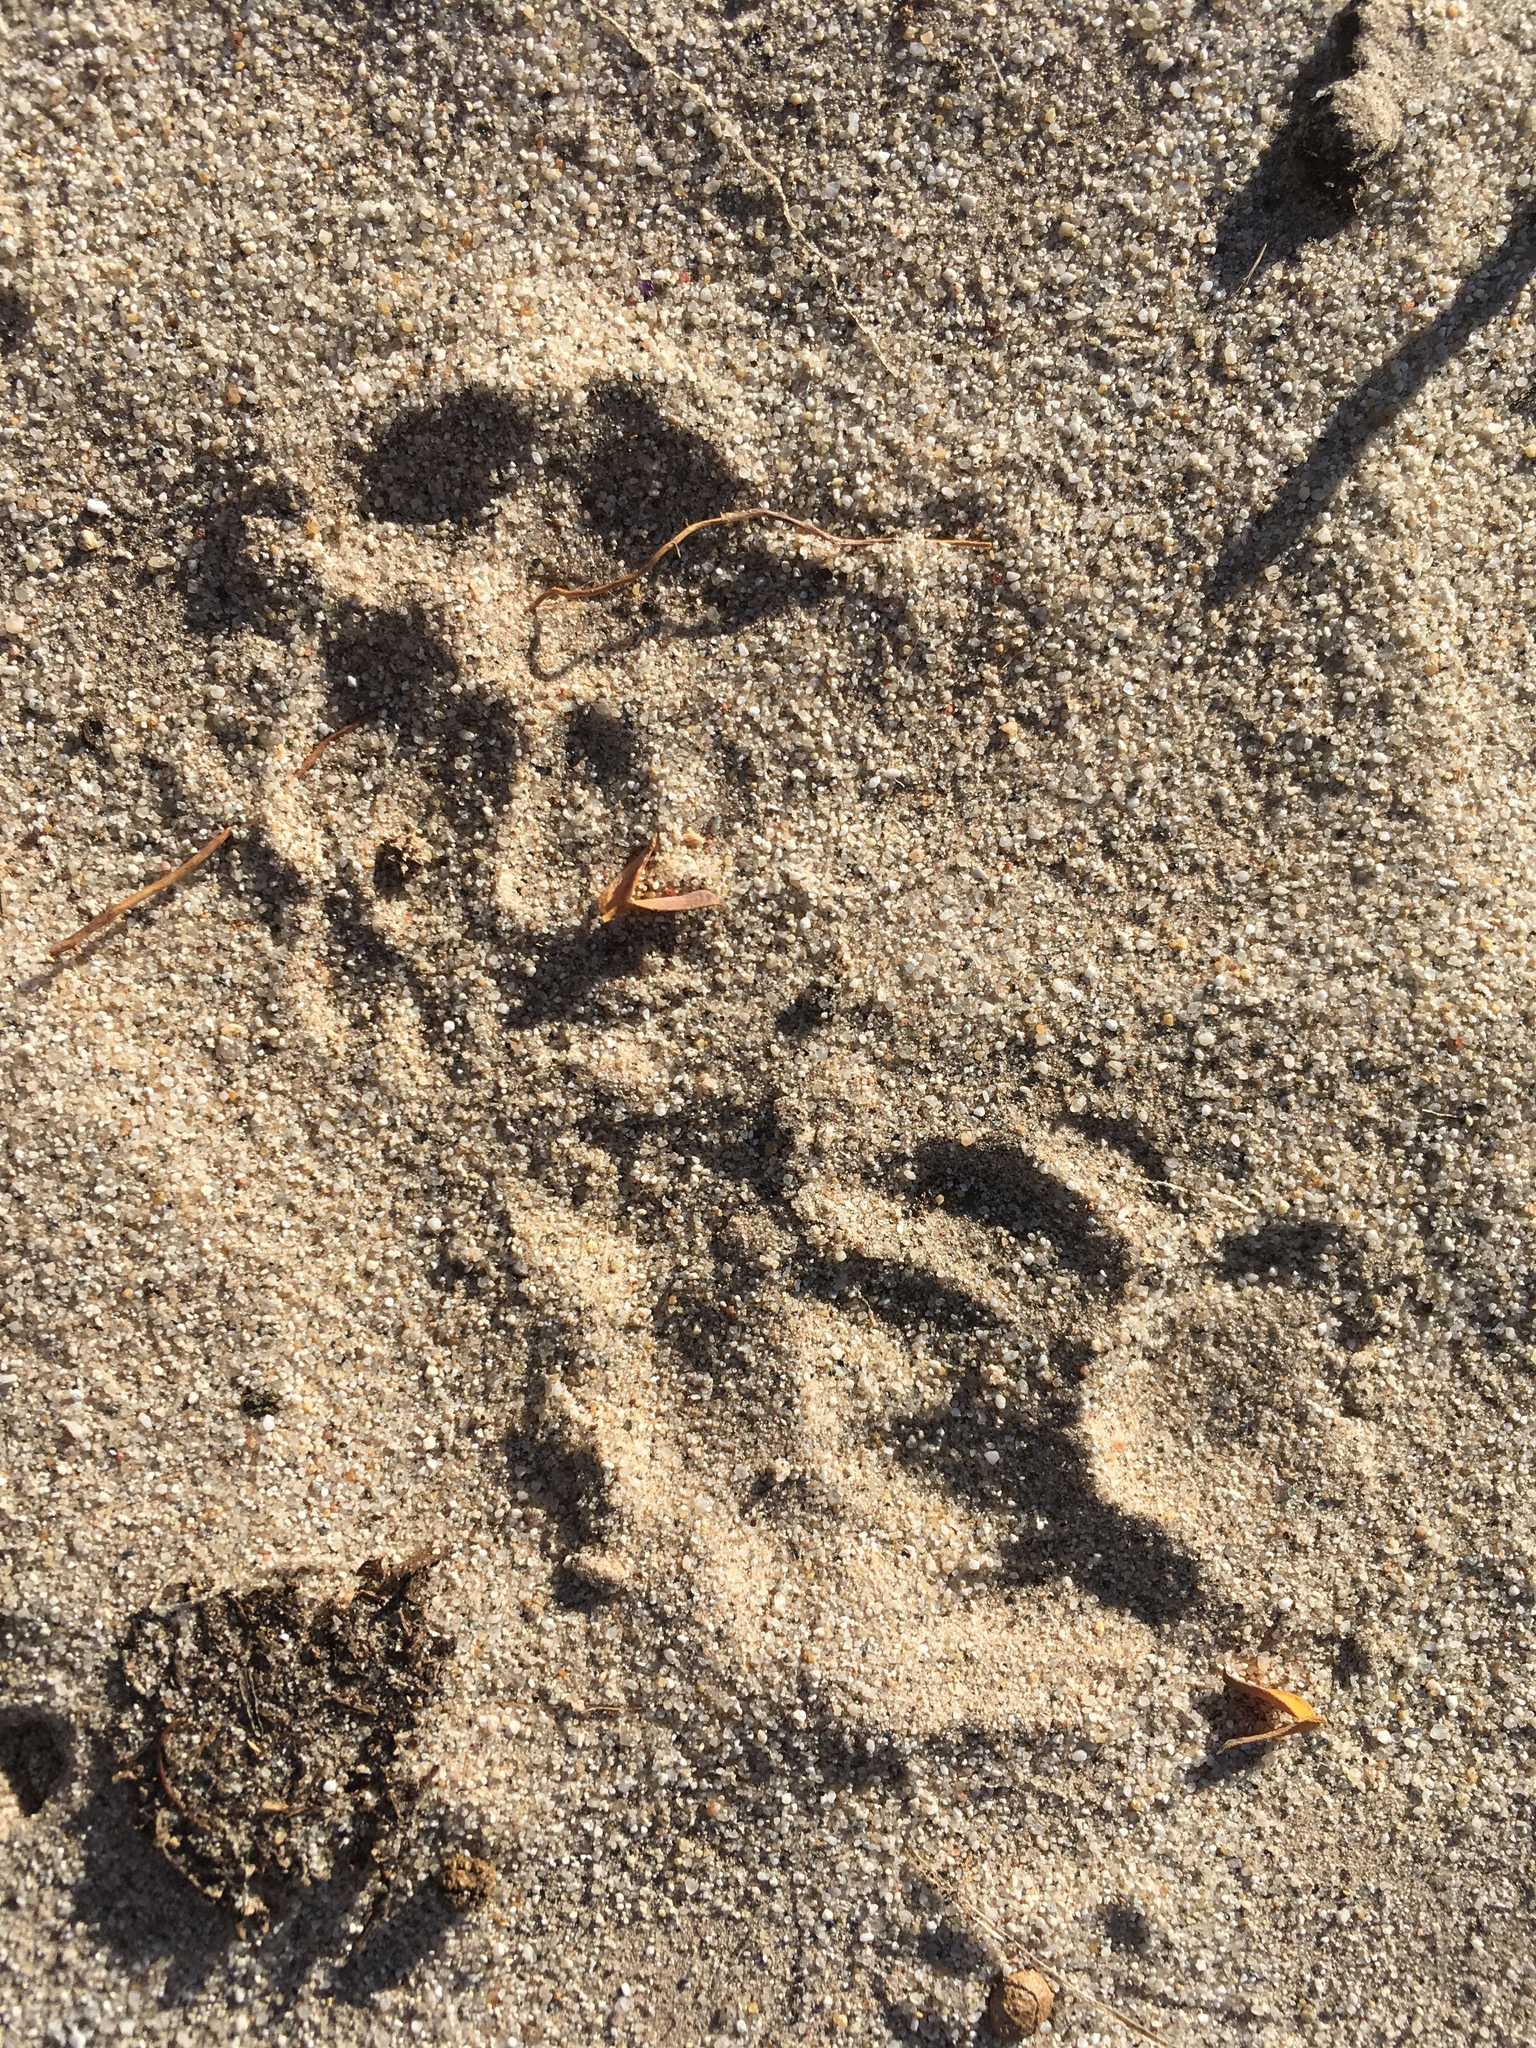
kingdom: Animalia
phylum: Chordata
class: Mammalia
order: Carnivora
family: Mustelidae
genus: Taxidea
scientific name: Taxidea taxus
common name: American badger
